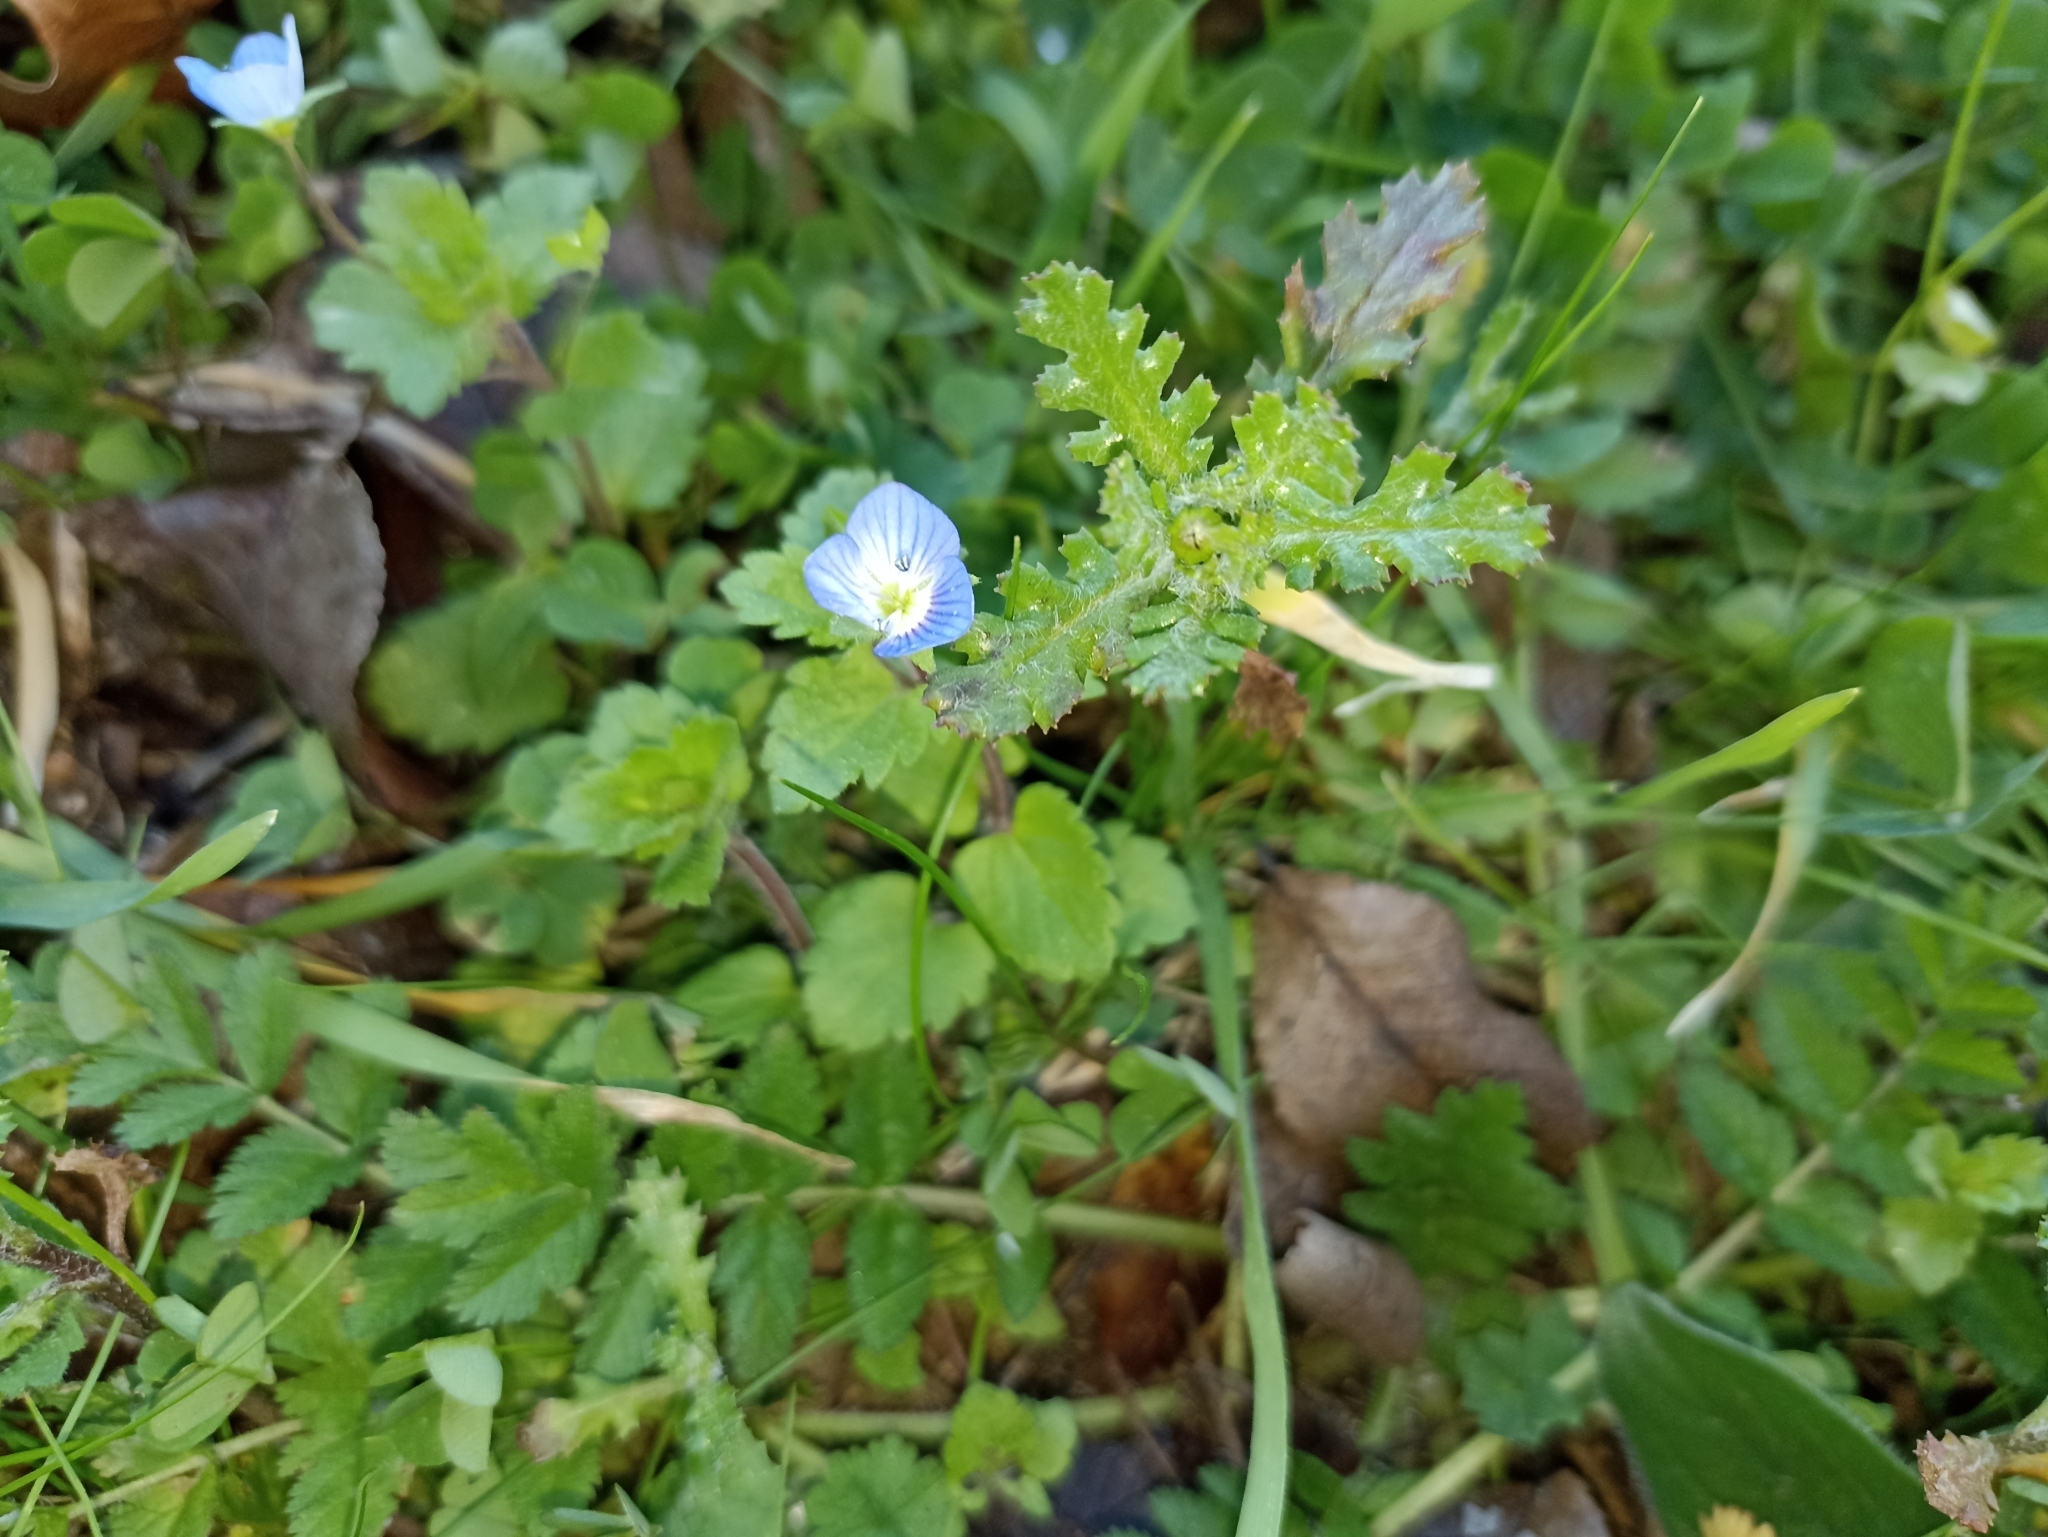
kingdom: Plantae
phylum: Tracheophyta
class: Magnoliopsida
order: Lamiales
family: Plantaginaceae
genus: Veronica
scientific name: Veronica persica
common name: Common field-speedwell
